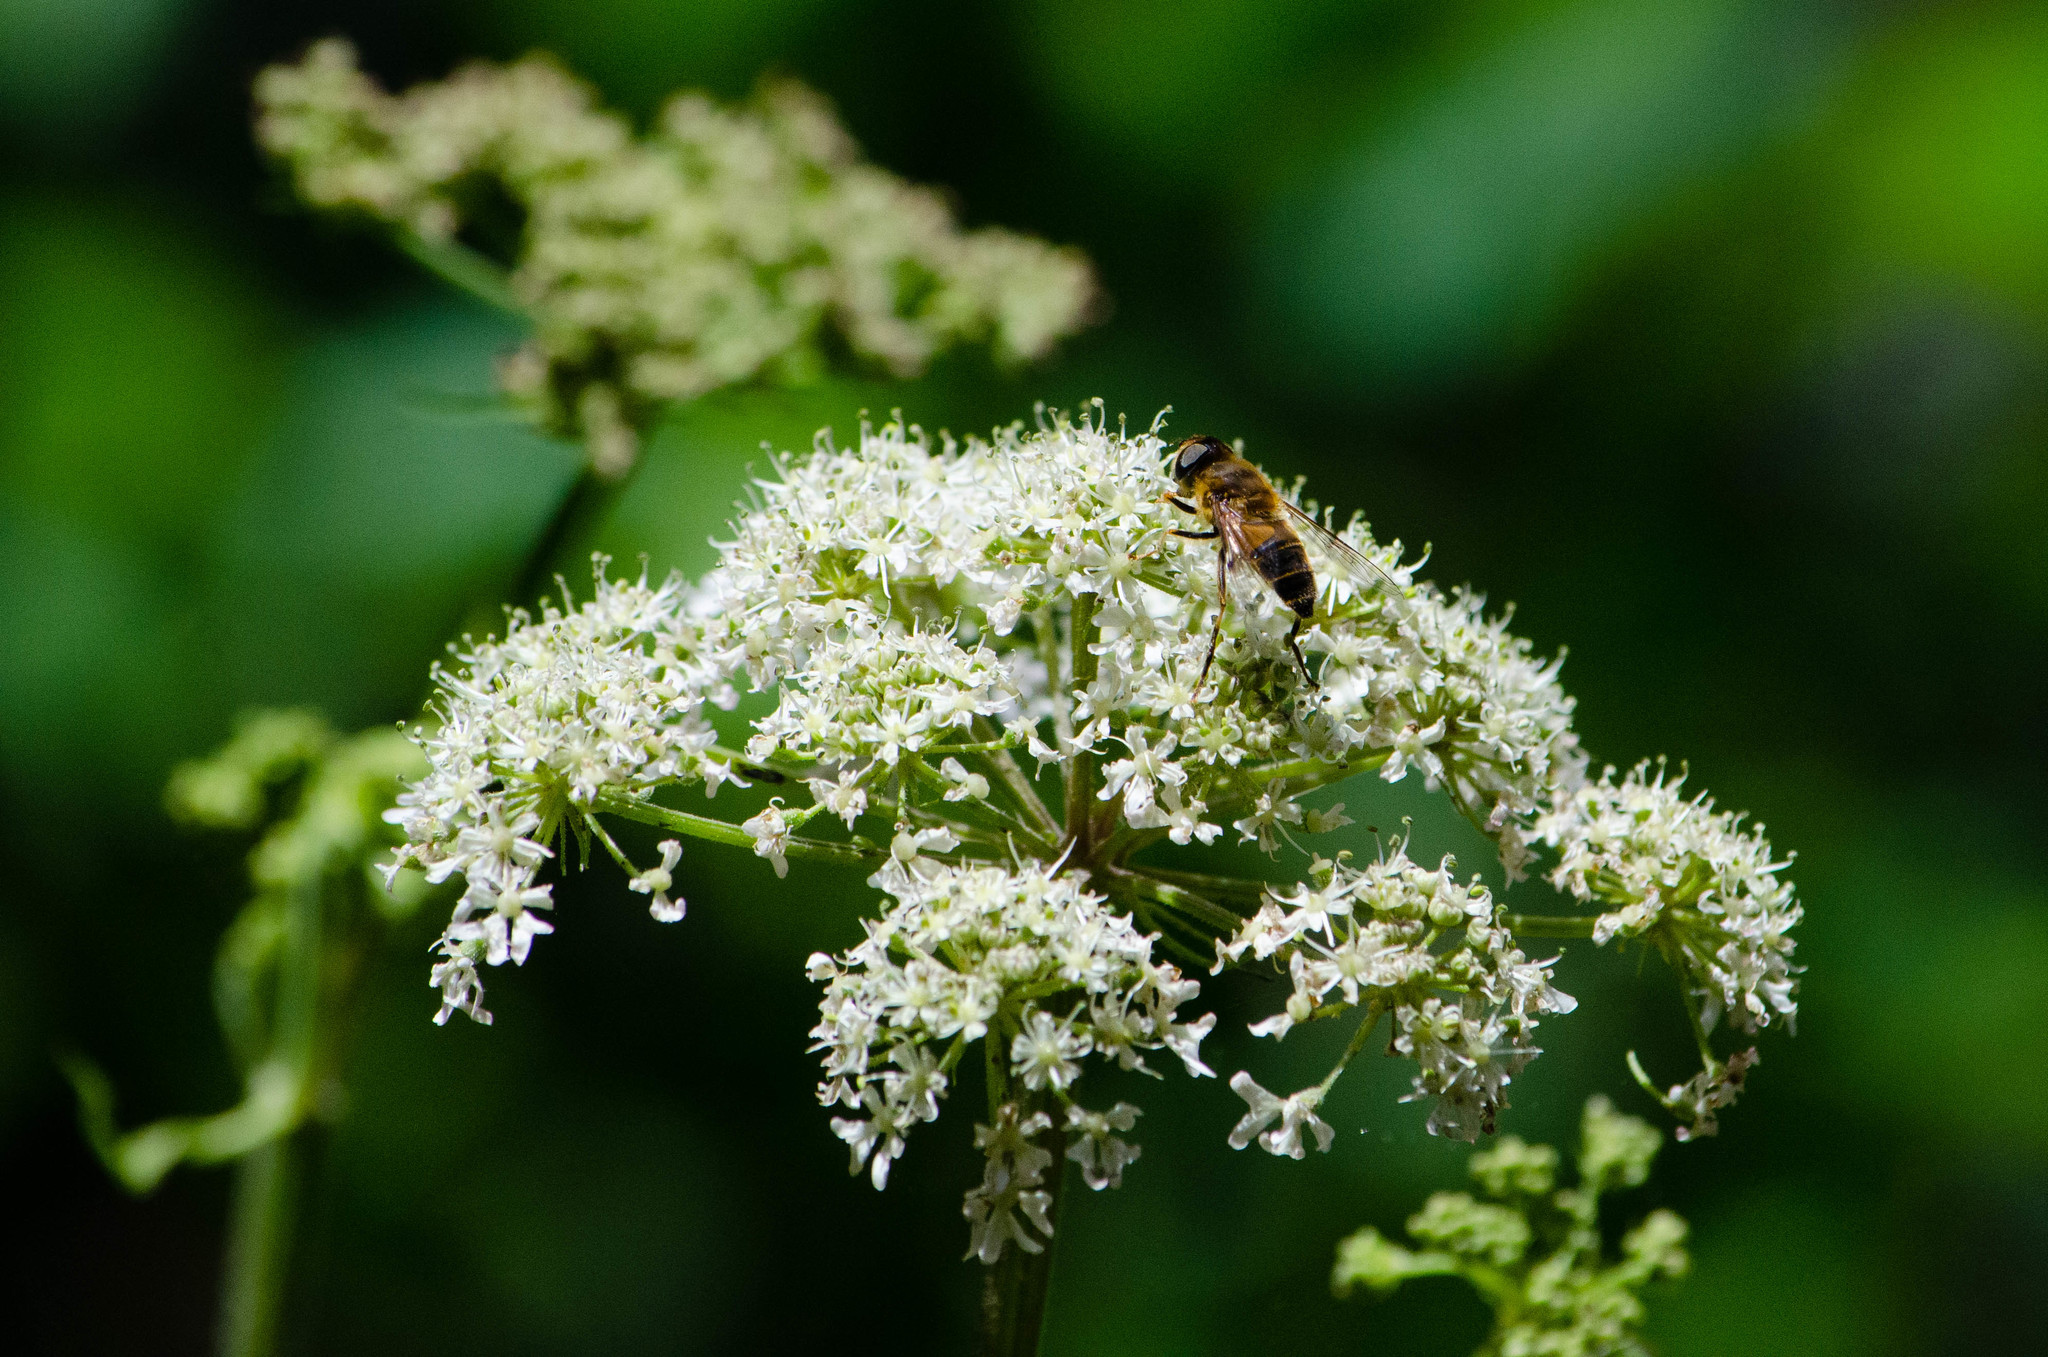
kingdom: Animalia
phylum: Arthropoda
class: Insecta
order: Diptera
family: Syrphidae
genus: Eristalis
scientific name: Eristalis pertinax
